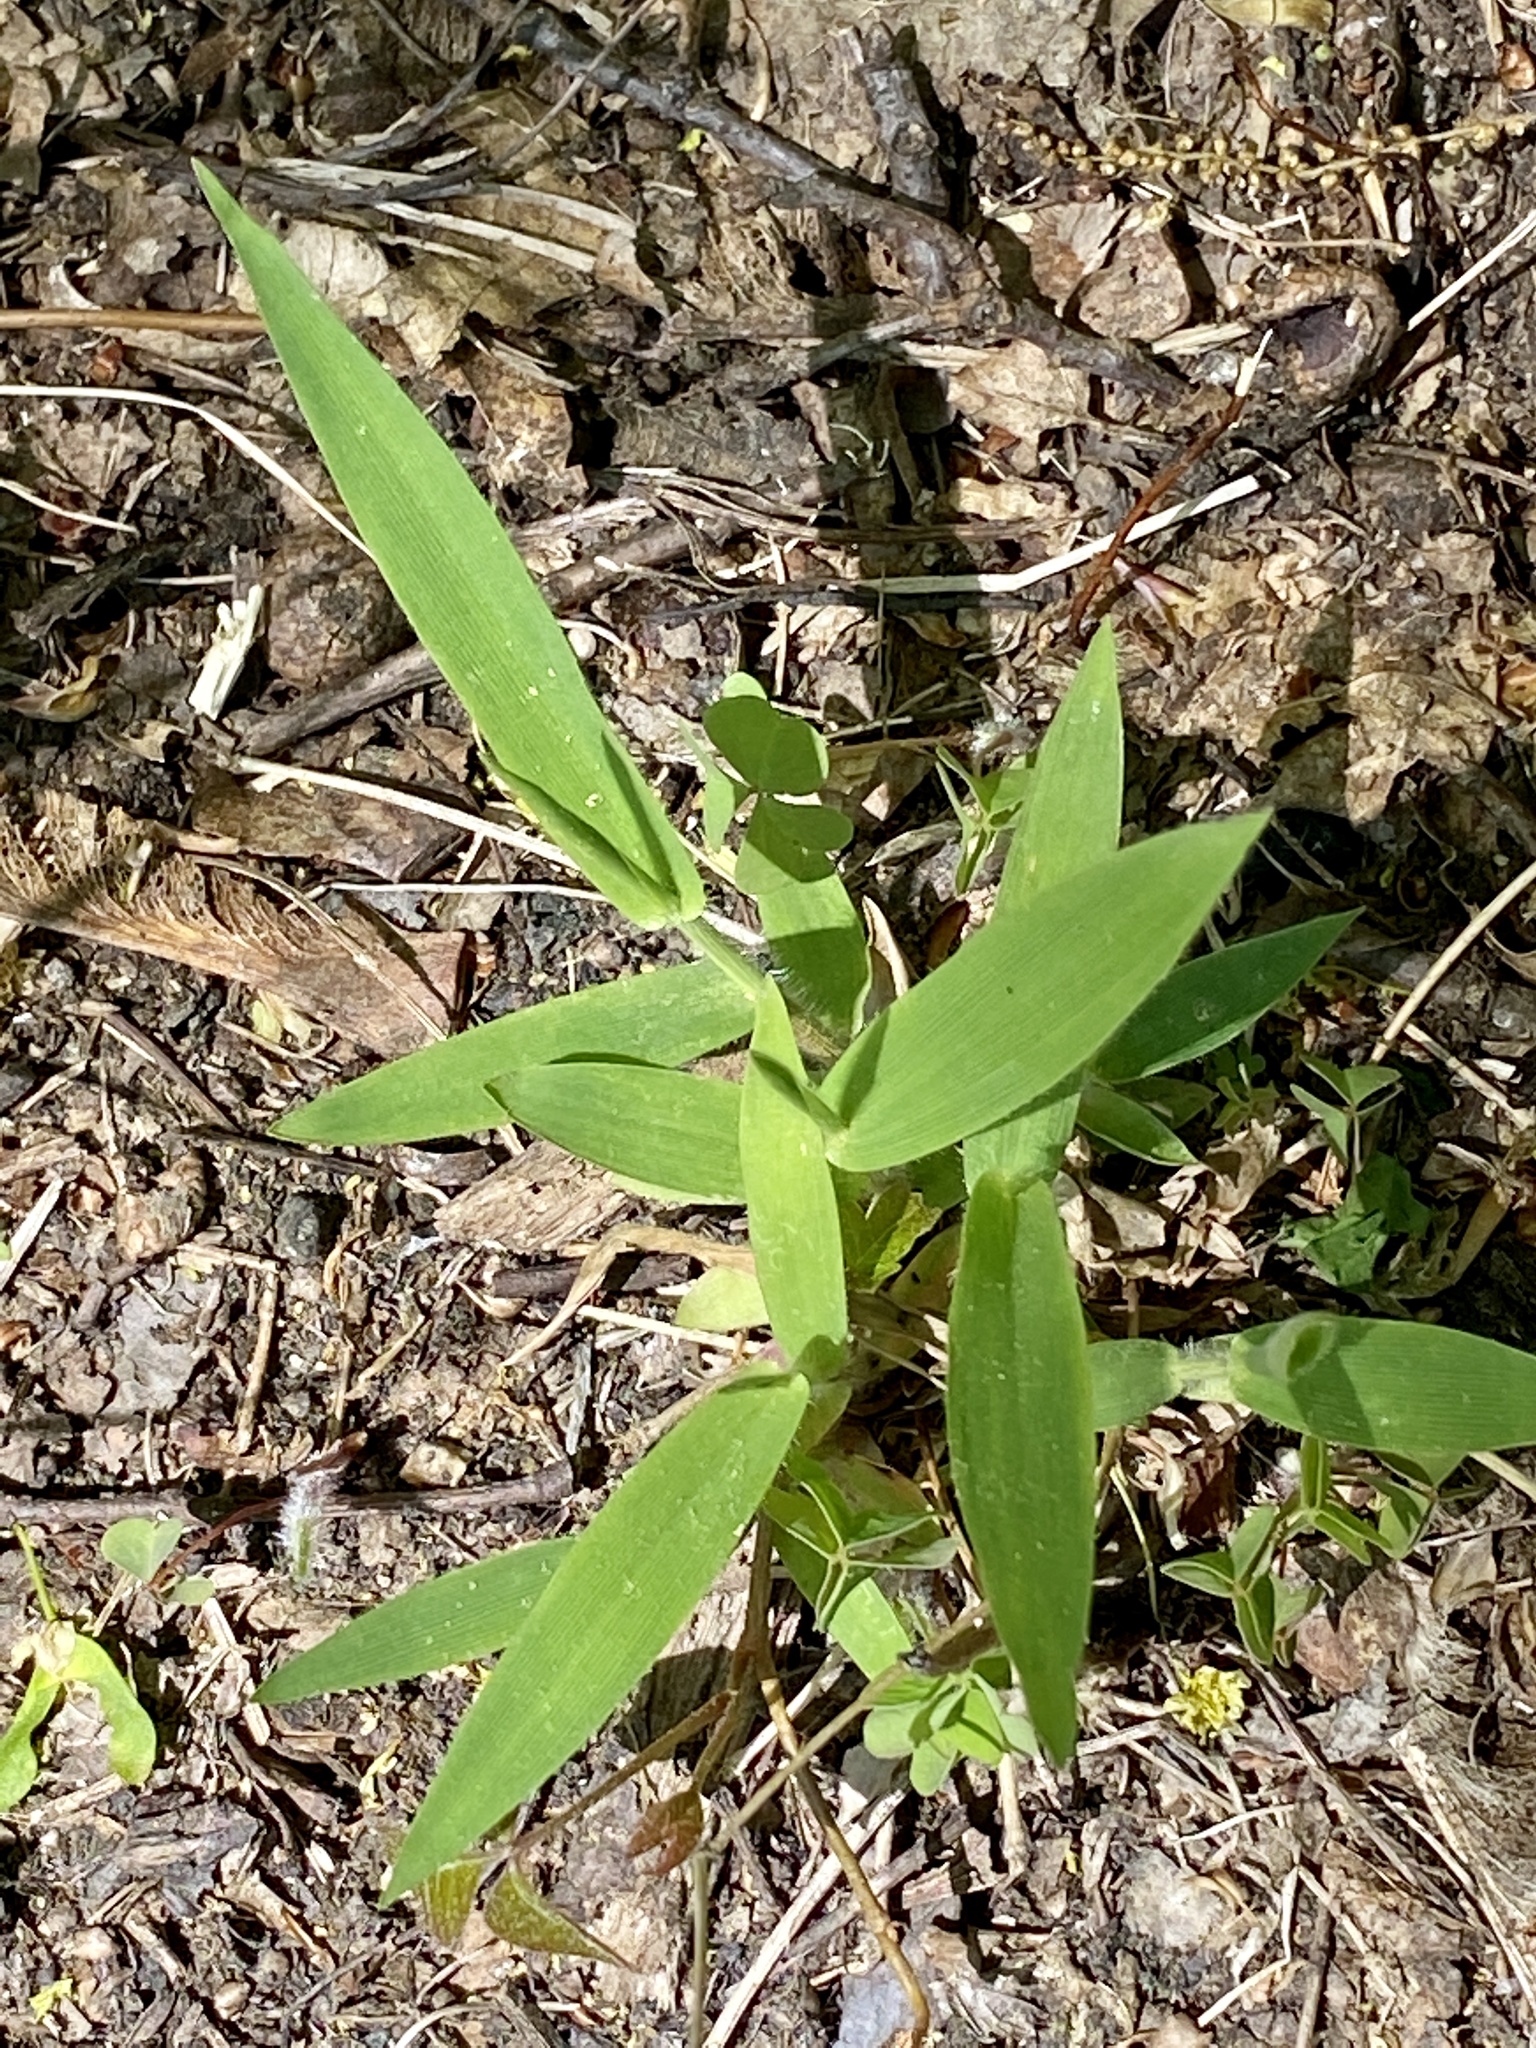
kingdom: Plantae
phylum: Tracheophyta
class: Liliopsida
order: Poales
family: Poaceae
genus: Dichanthelium
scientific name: Dichanthelium clandestinum
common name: Deer-tongue grass
